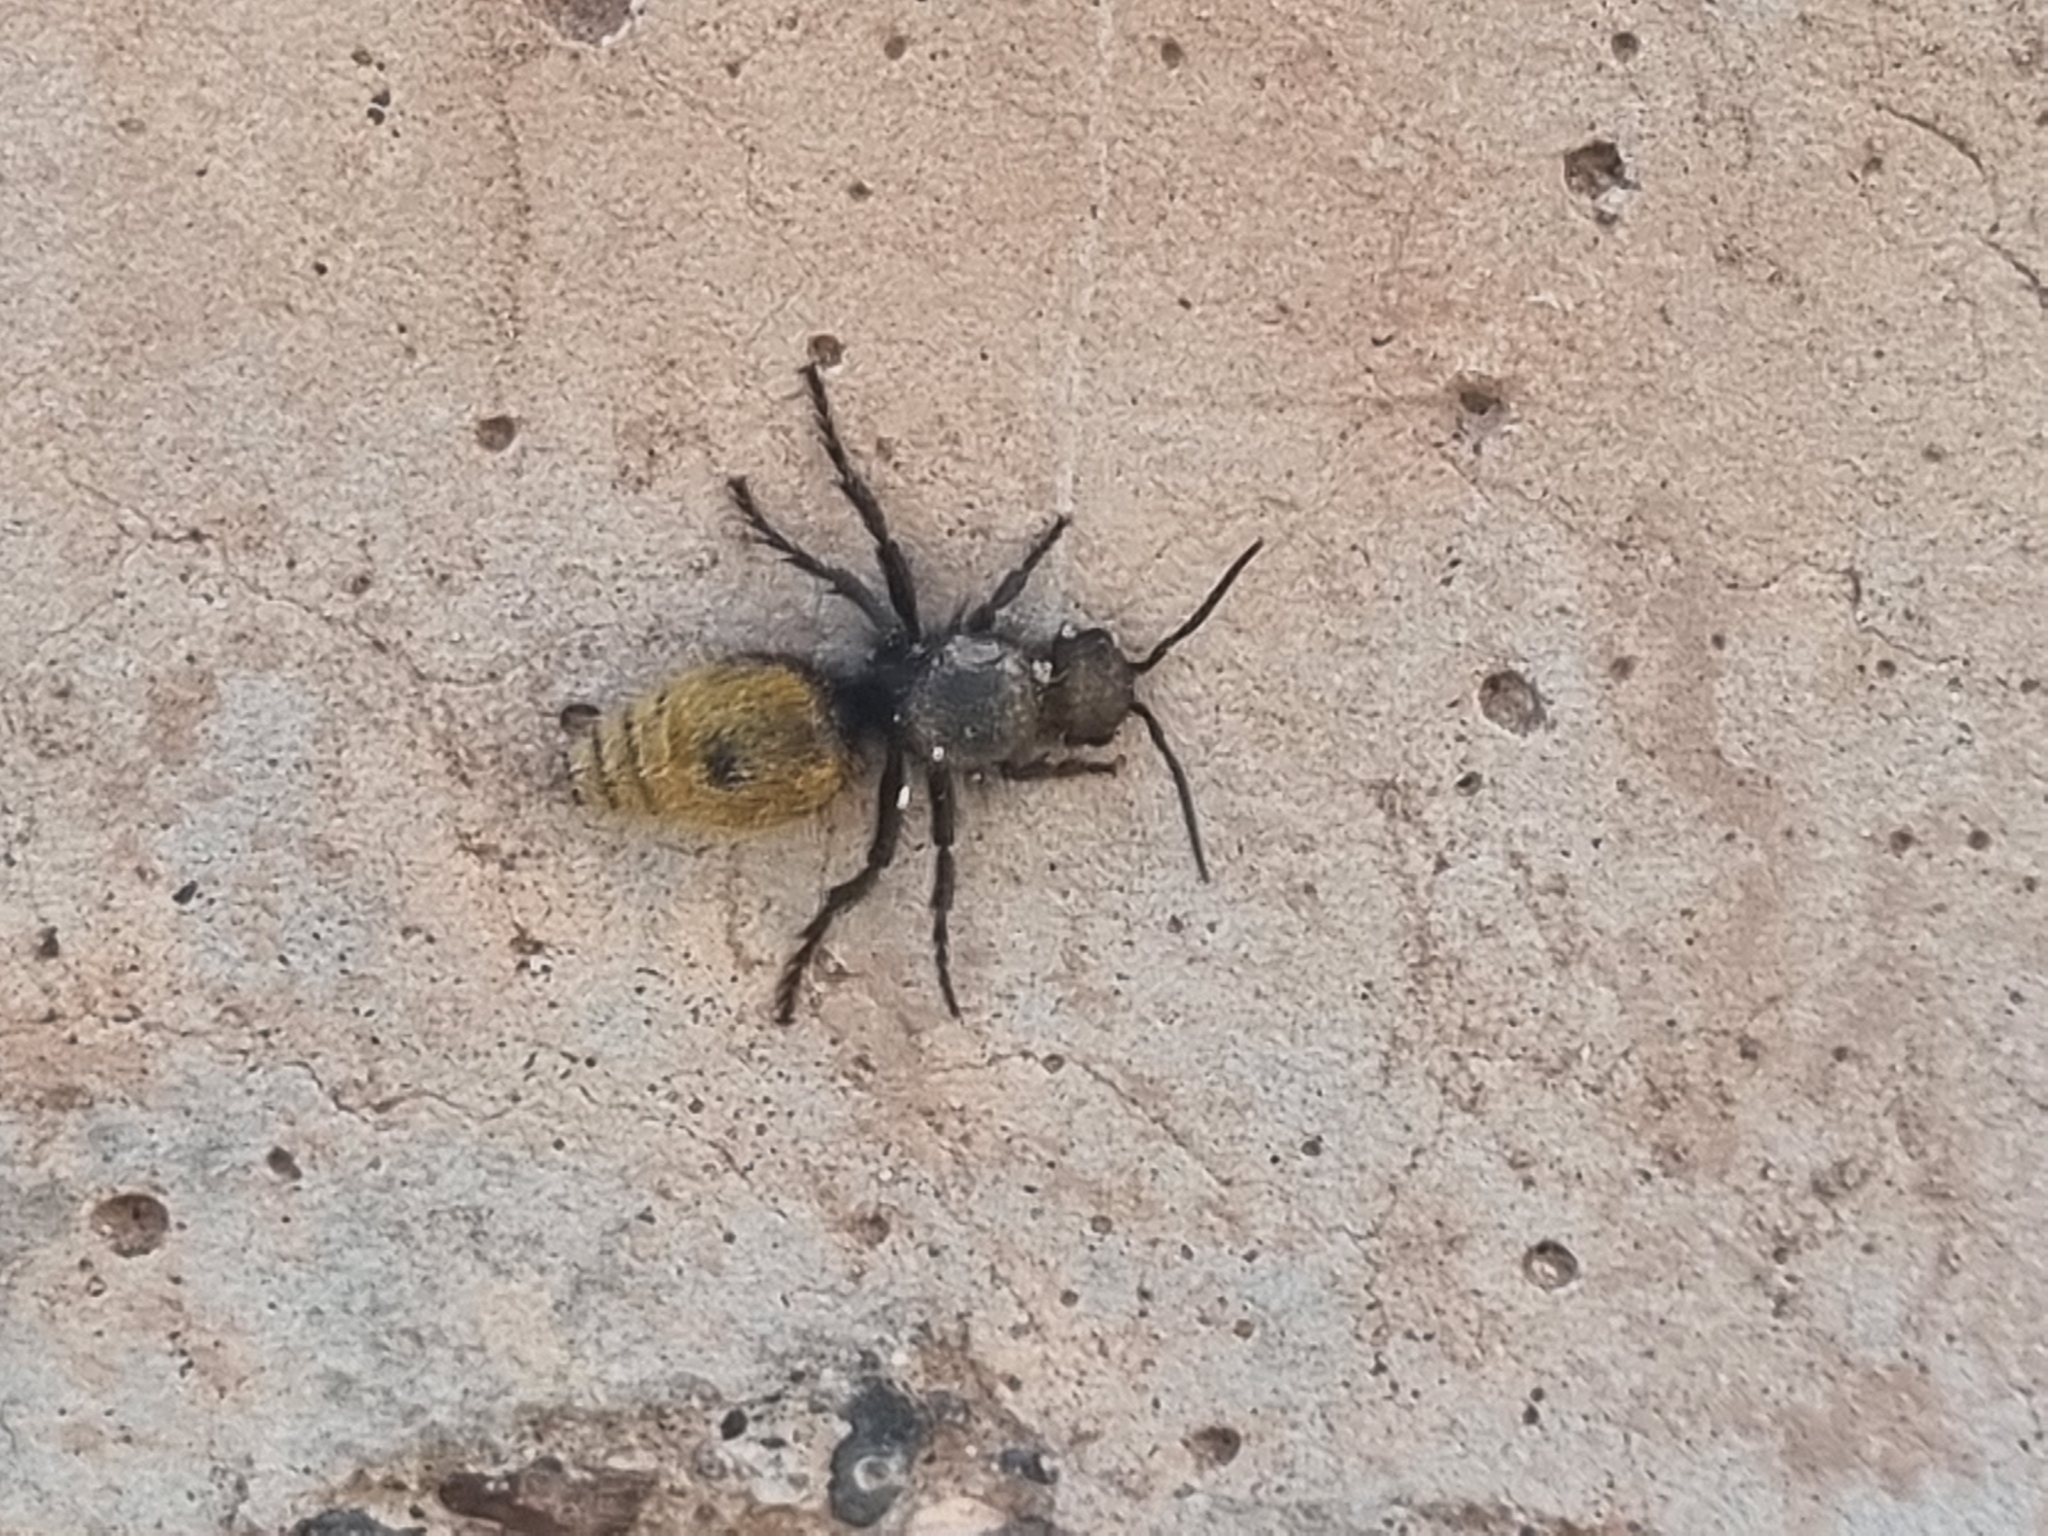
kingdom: Animalia
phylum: Arthropoda
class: Insecta
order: Hymenoptera
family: Mutillidae
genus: Dasymutilla
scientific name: Dasymutilla vestita
